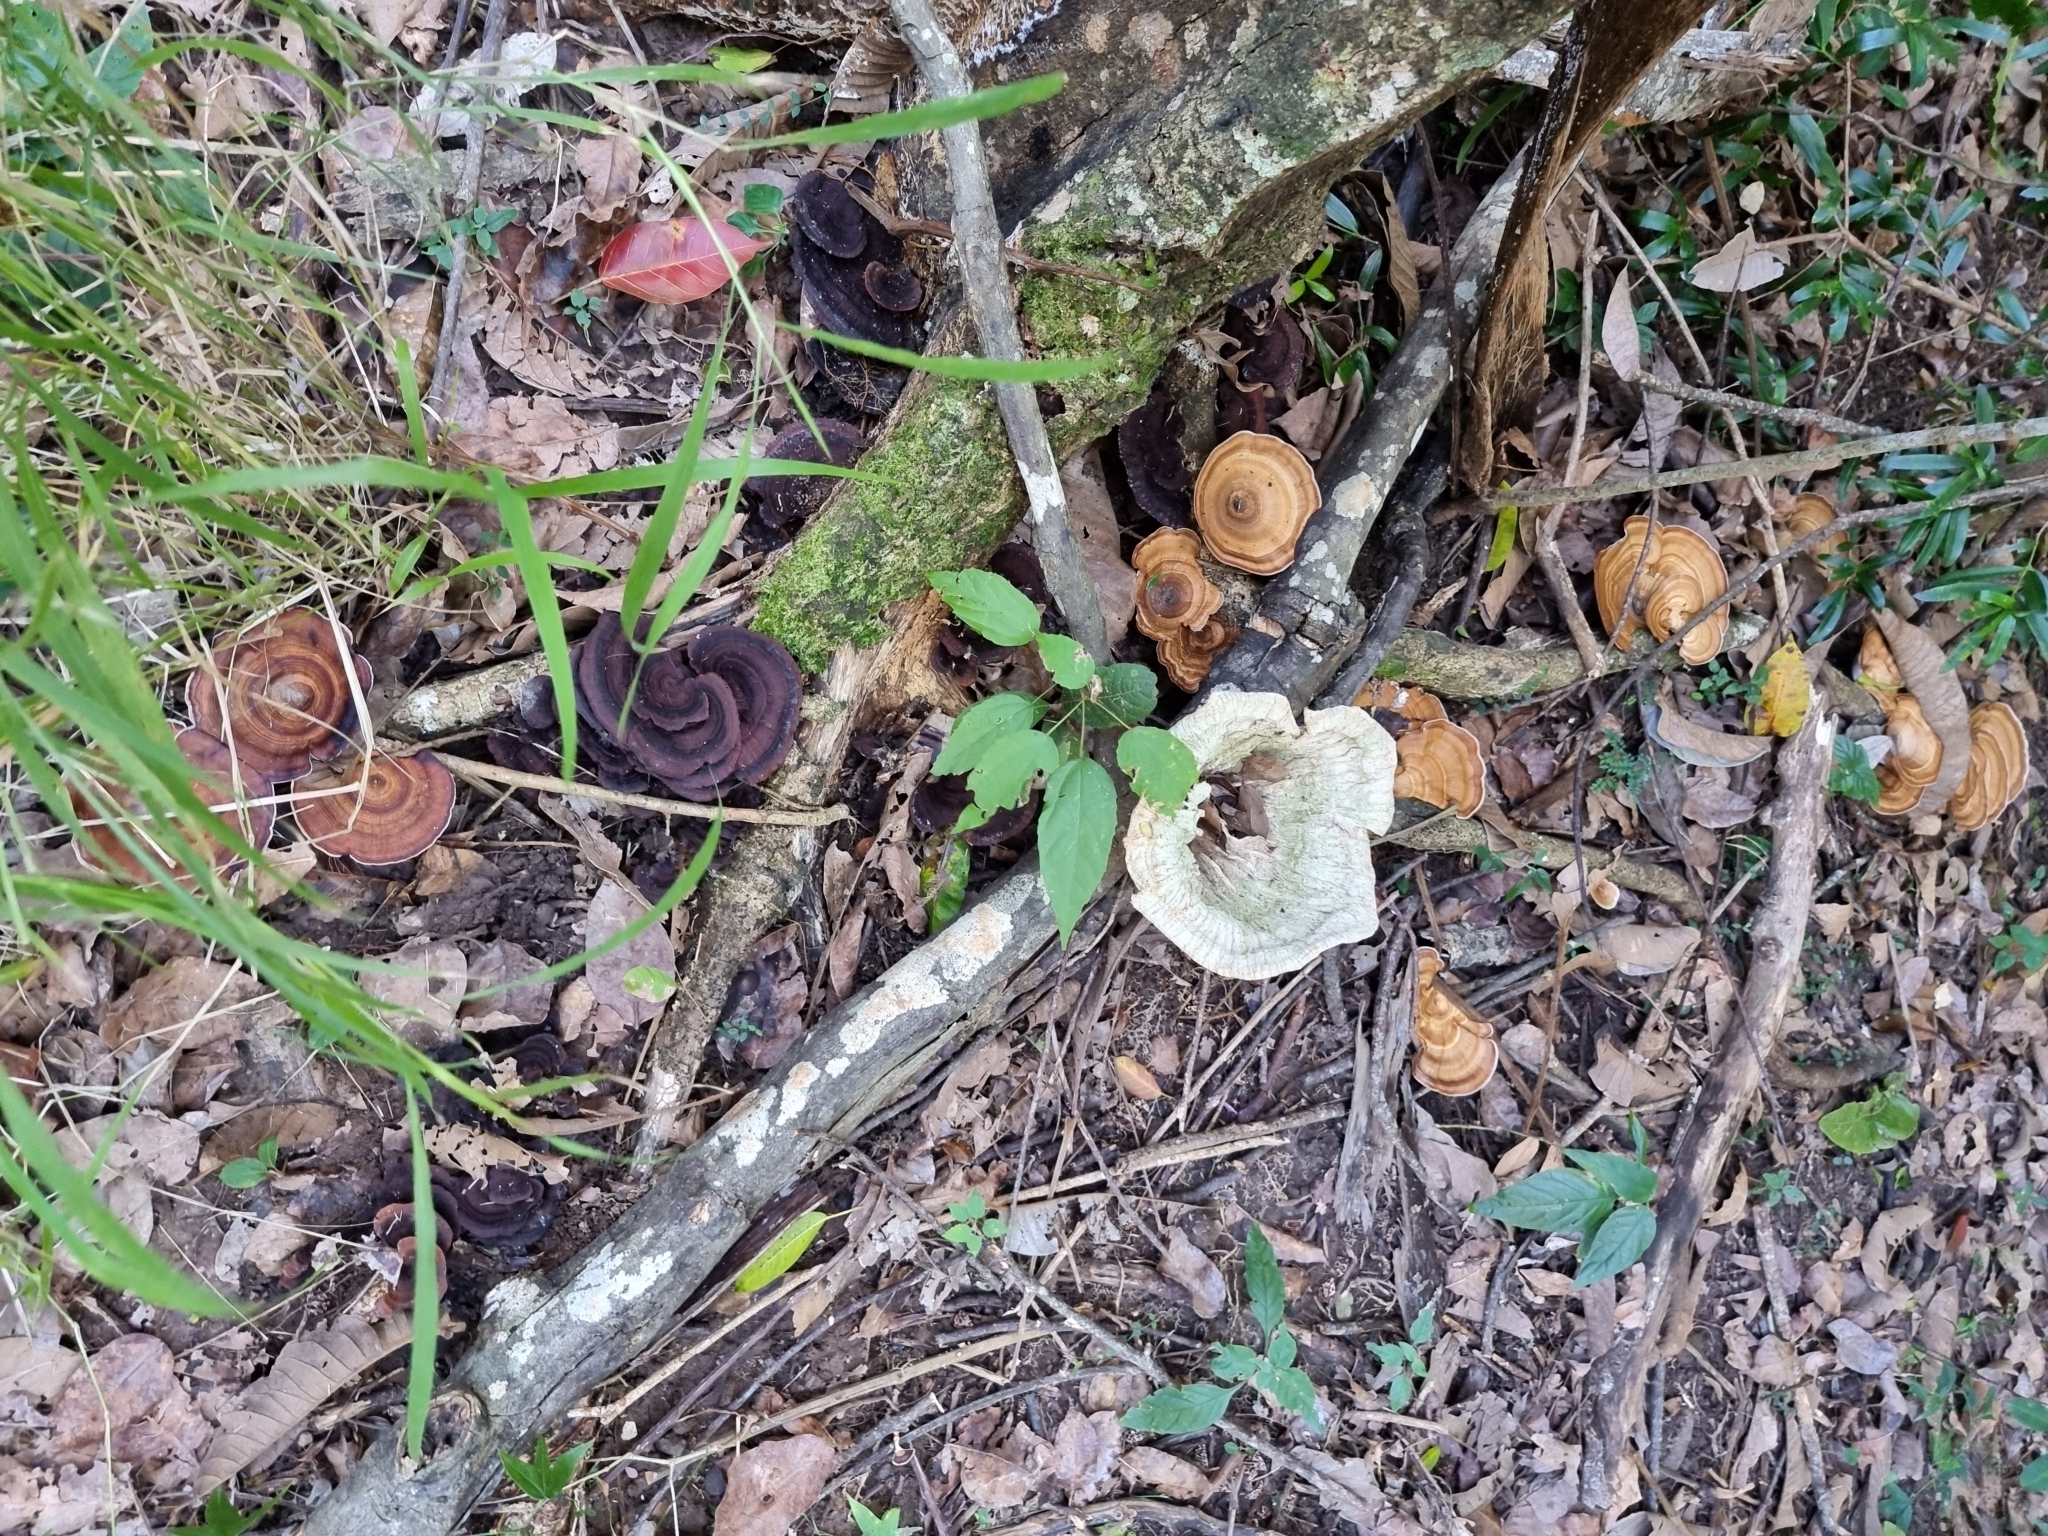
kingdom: Fungi
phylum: Basidiomycota
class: Agaricomycetes
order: Polyporales
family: Panaceae
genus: Cymatoderma
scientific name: Cymatoderma elegans
